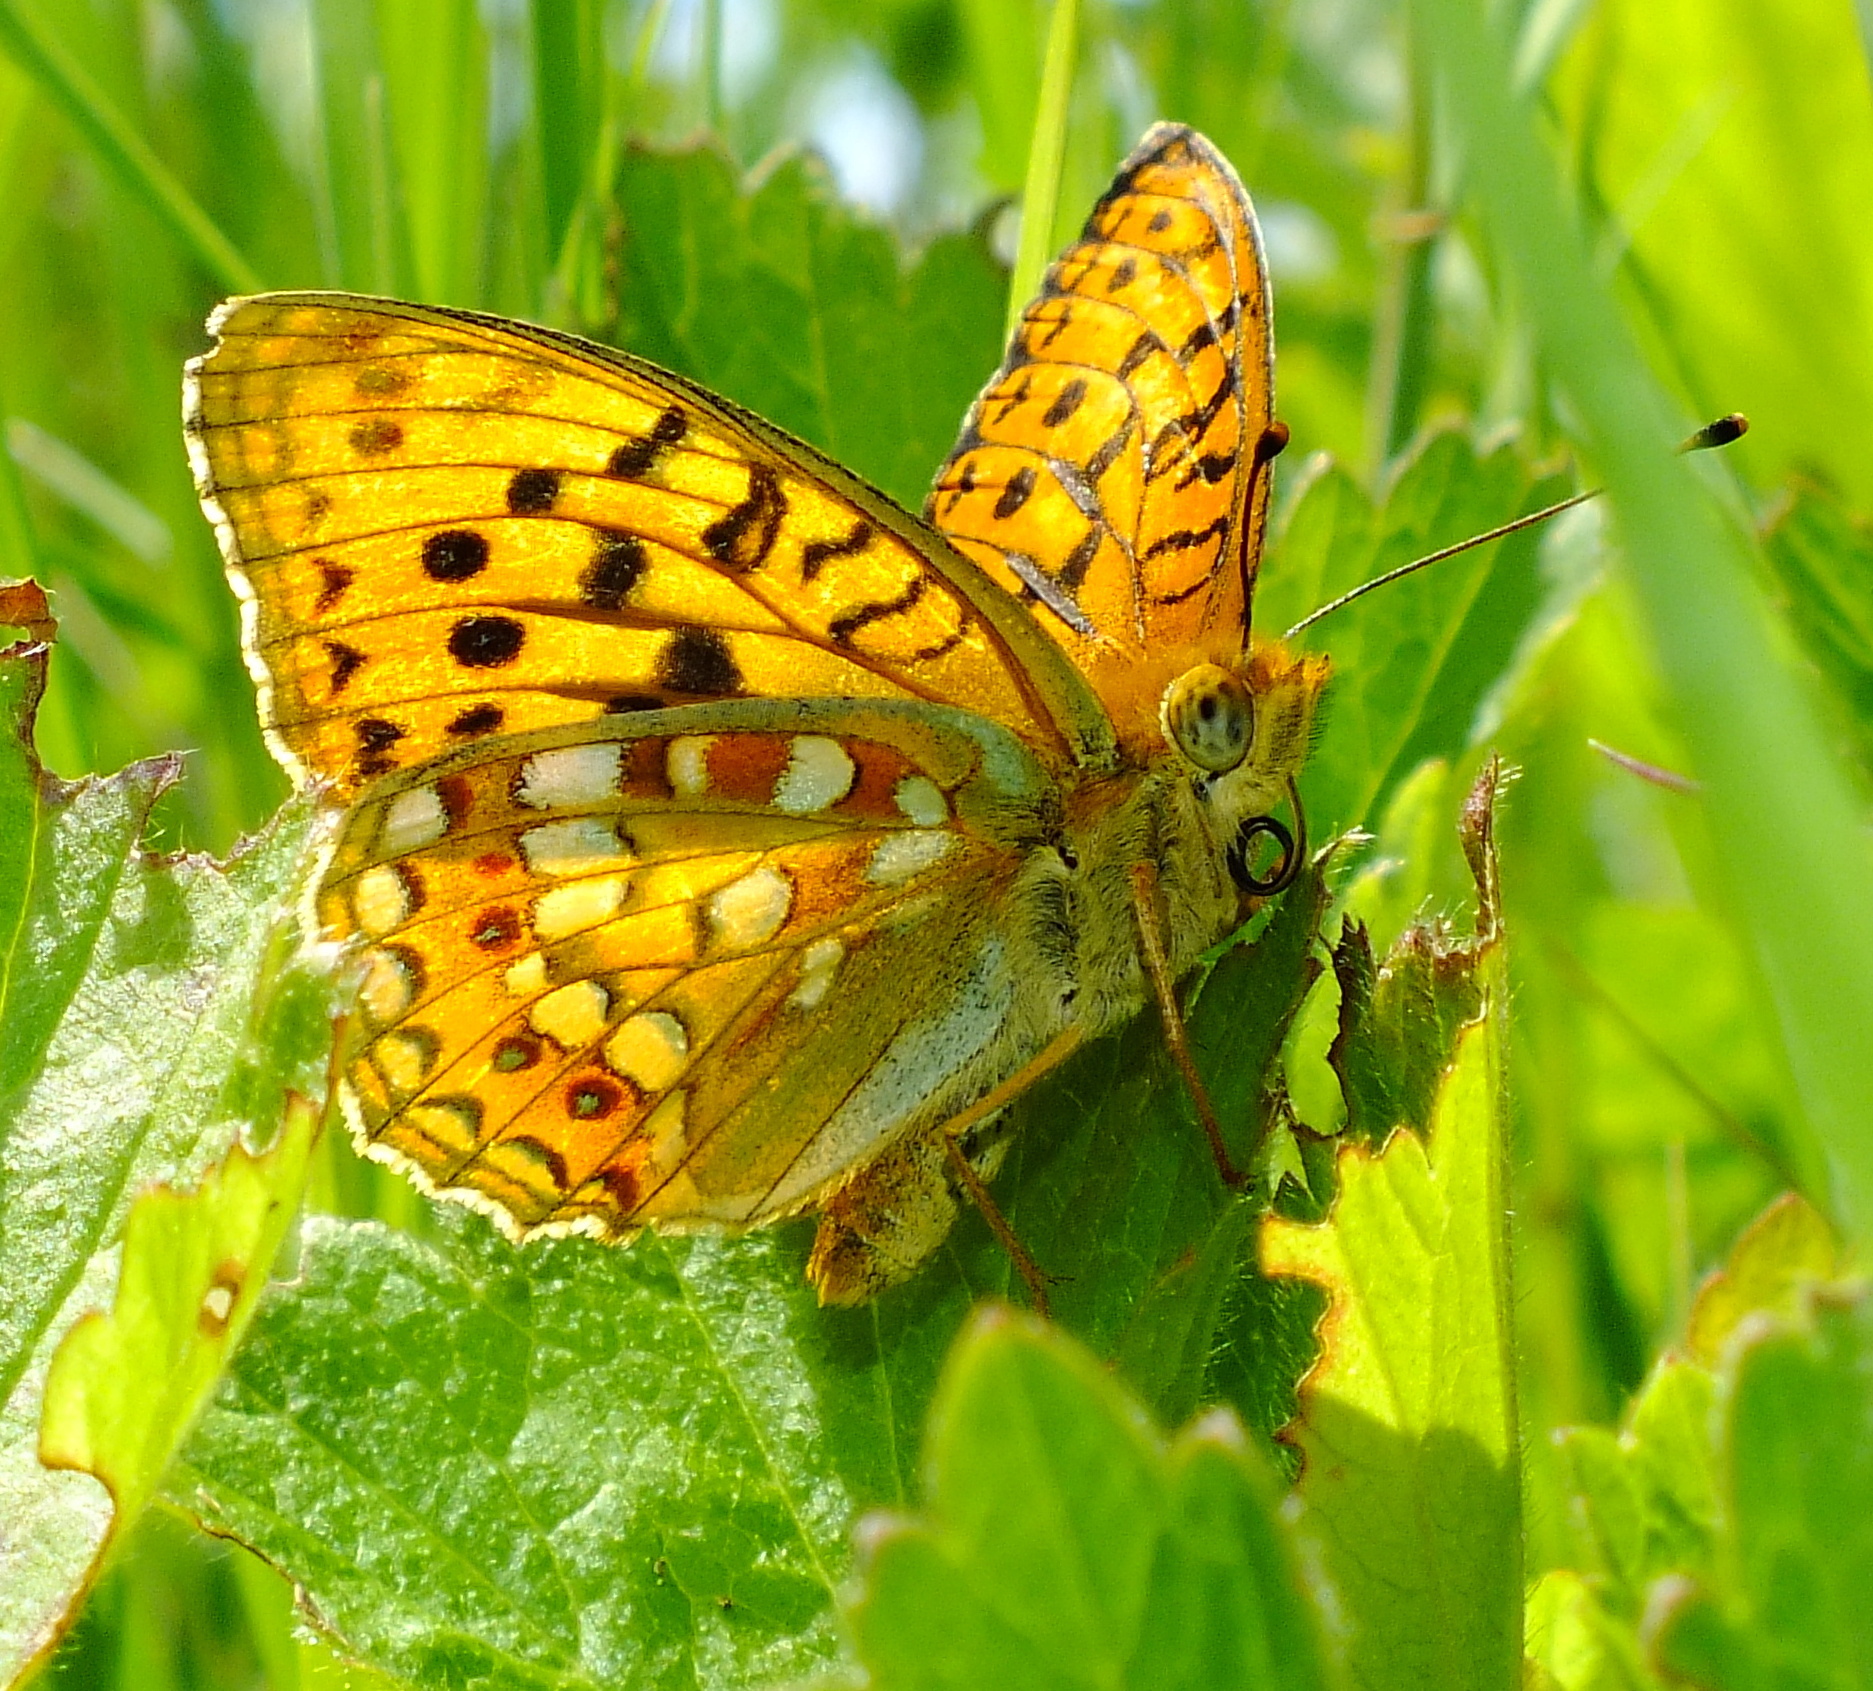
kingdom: Animalia
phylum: Arthropoda
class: Insecta
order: Lepidoptera
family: Nymphalidae
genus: Fabriciana
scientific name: Fabriciana adippe
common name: High brown fritillary
